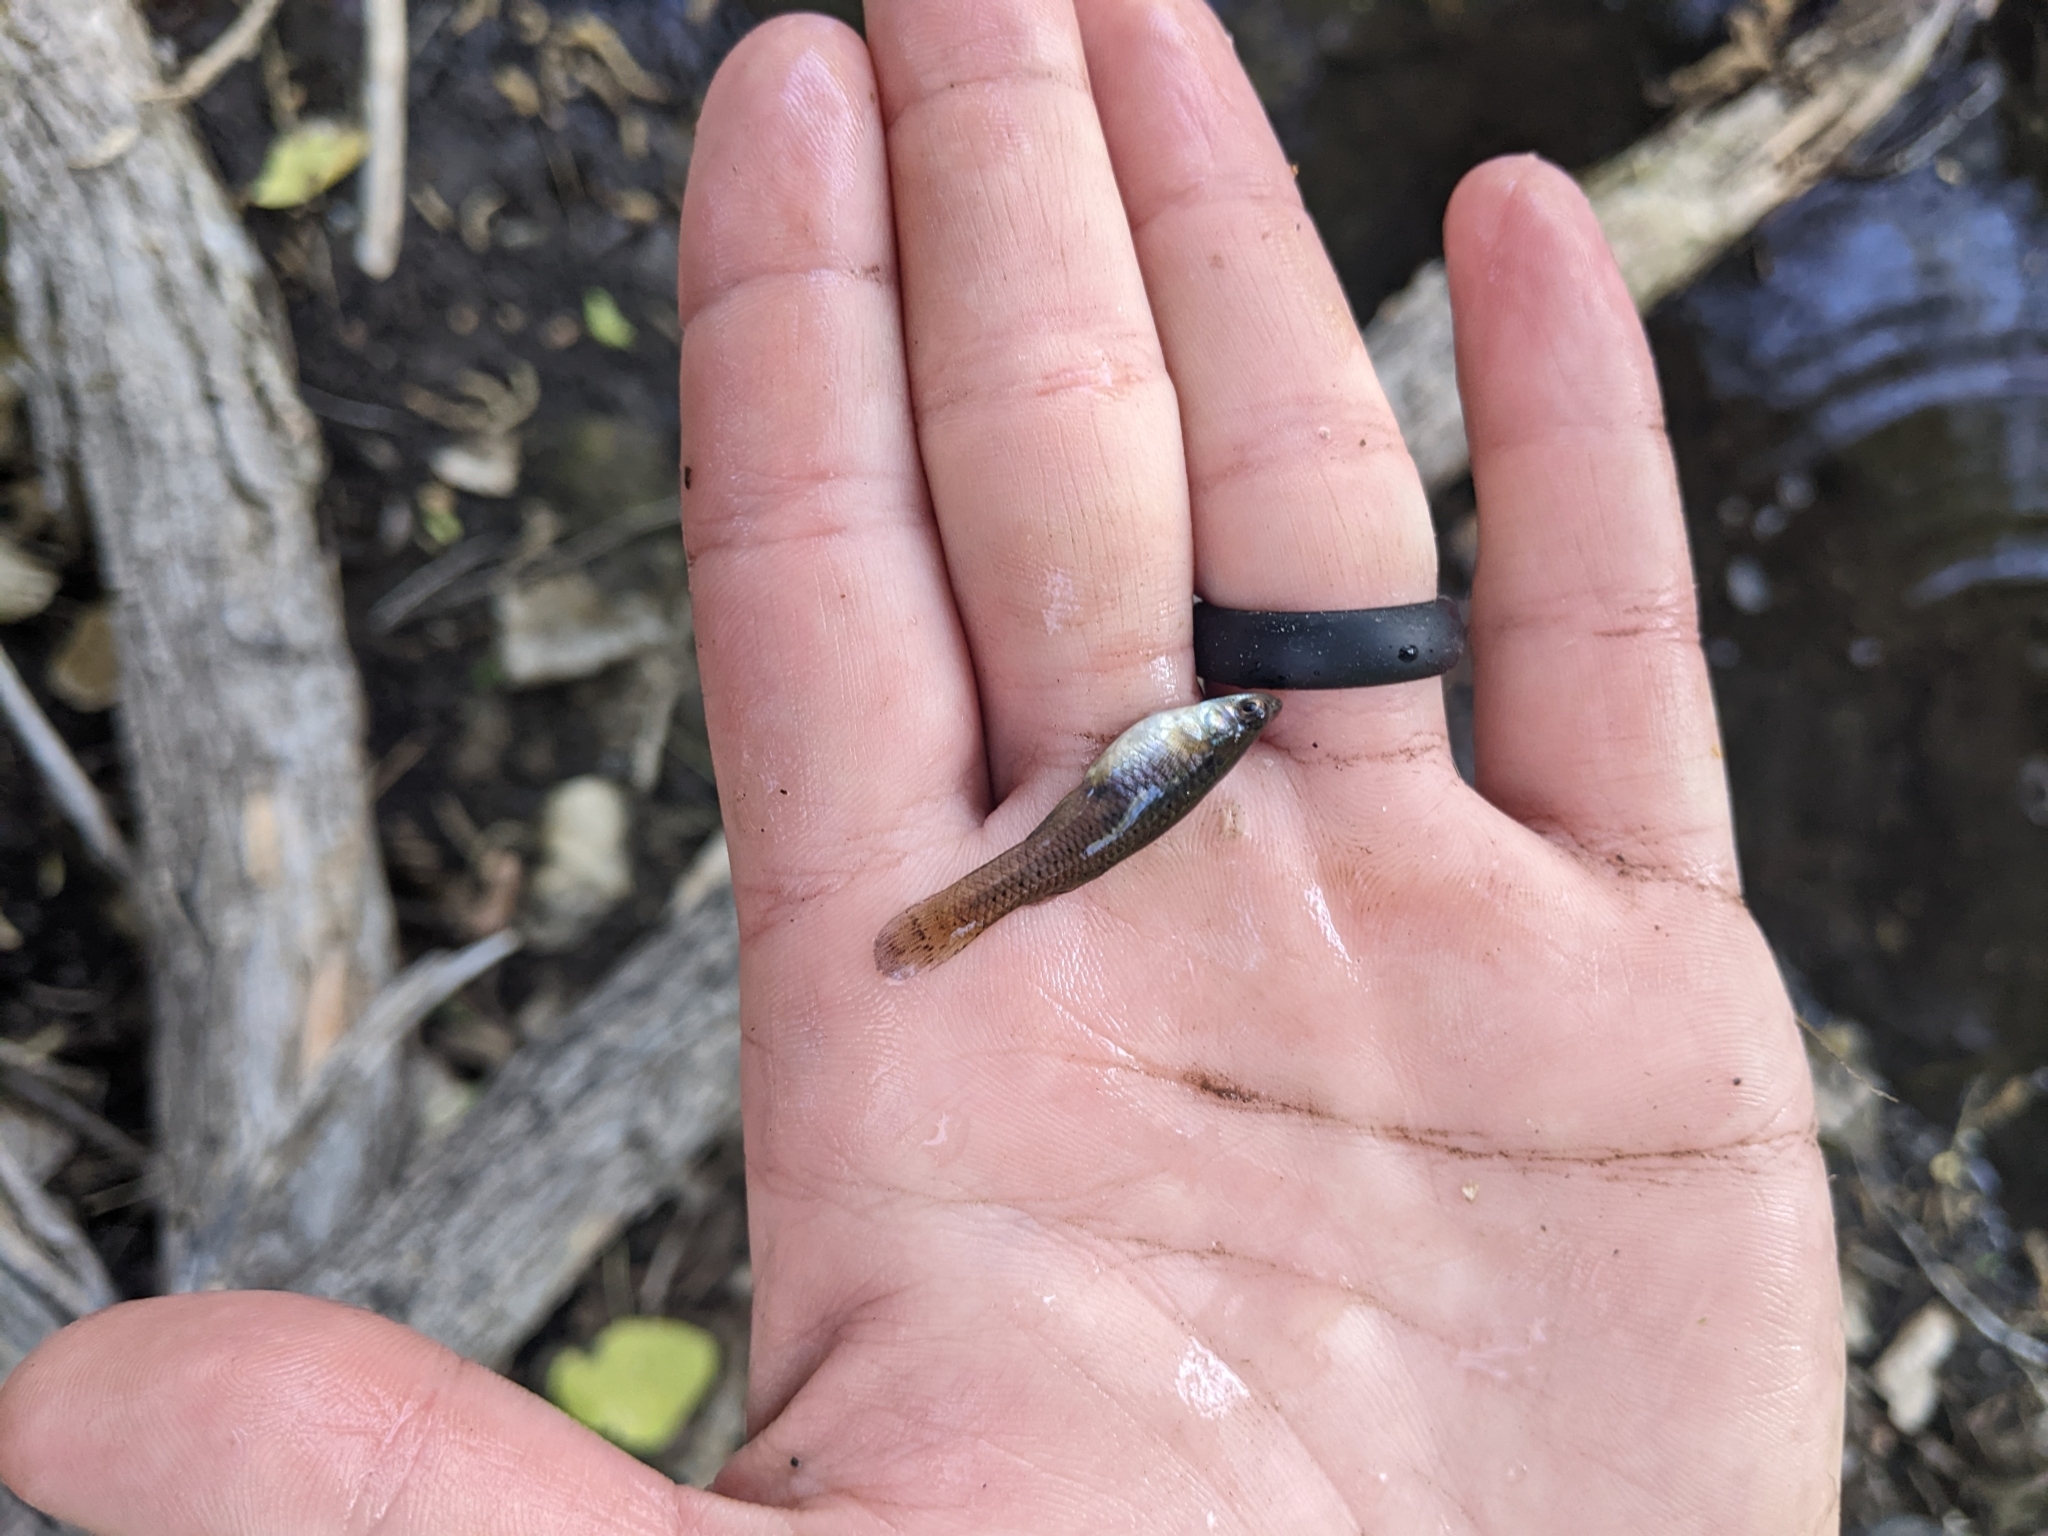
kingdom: Animalia
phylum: Chordata
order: Cyprinodontiformes
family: Poeciliidae
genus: Gambusia
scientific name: Gambusia affinis
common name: Mosquitofish
